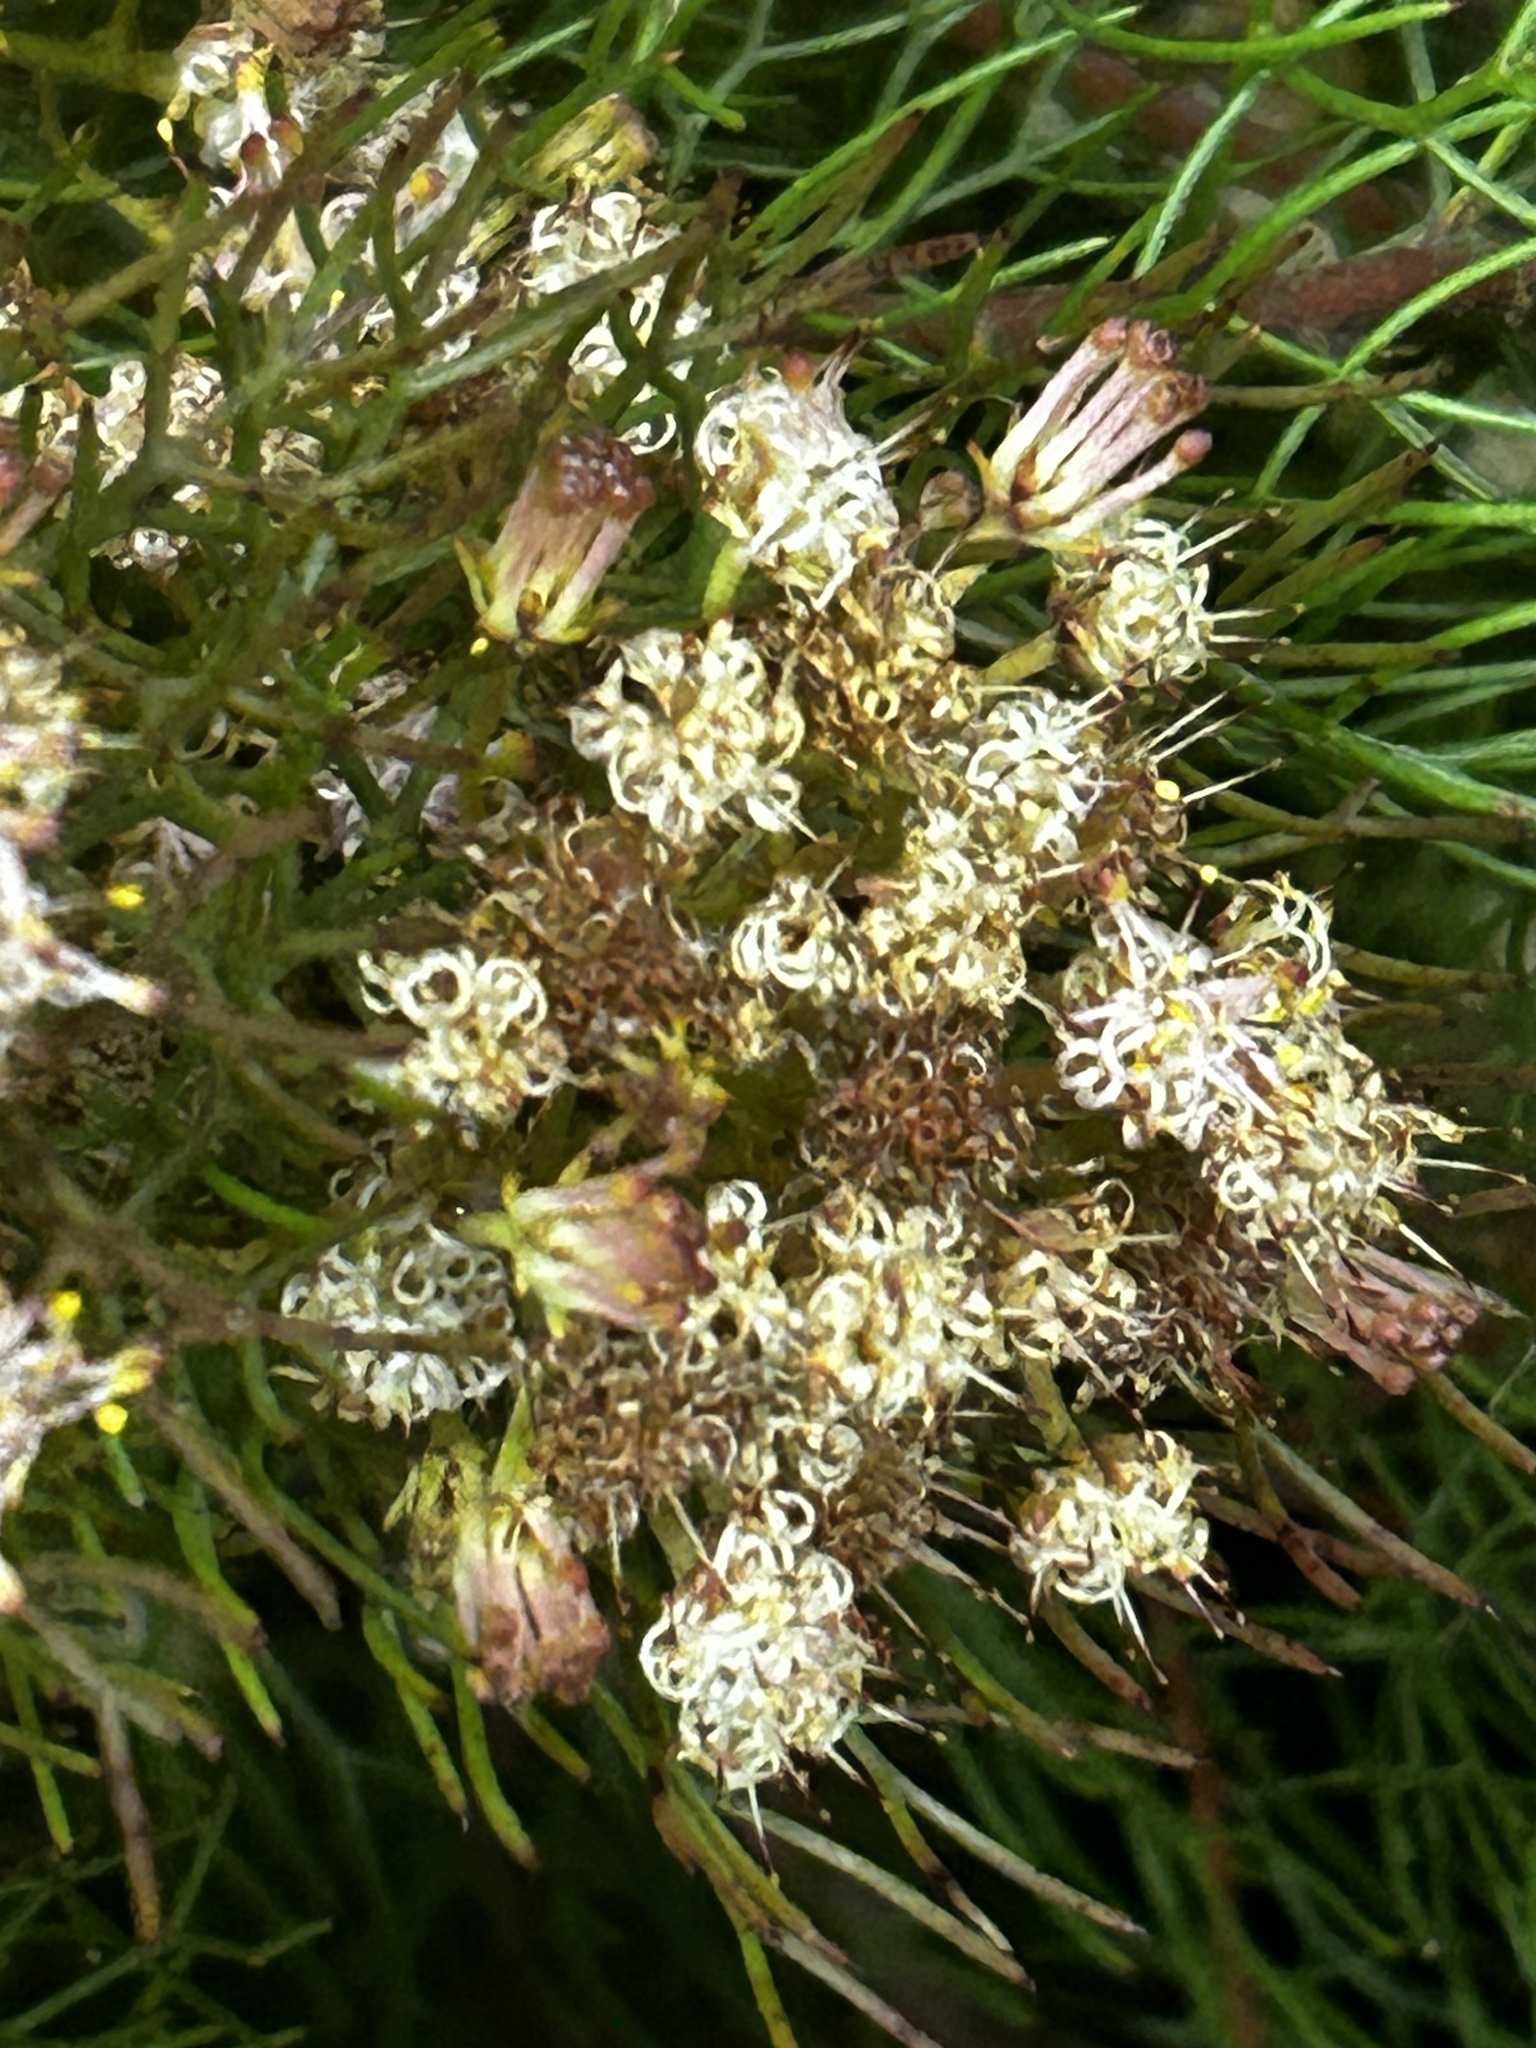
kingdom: Plantae
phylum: Tracheophyta
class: Magnoliopsida
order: Proteales
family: Proteaceae
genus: Serruria
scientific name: Serruria fasciflora
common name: Common pin spiderhead
